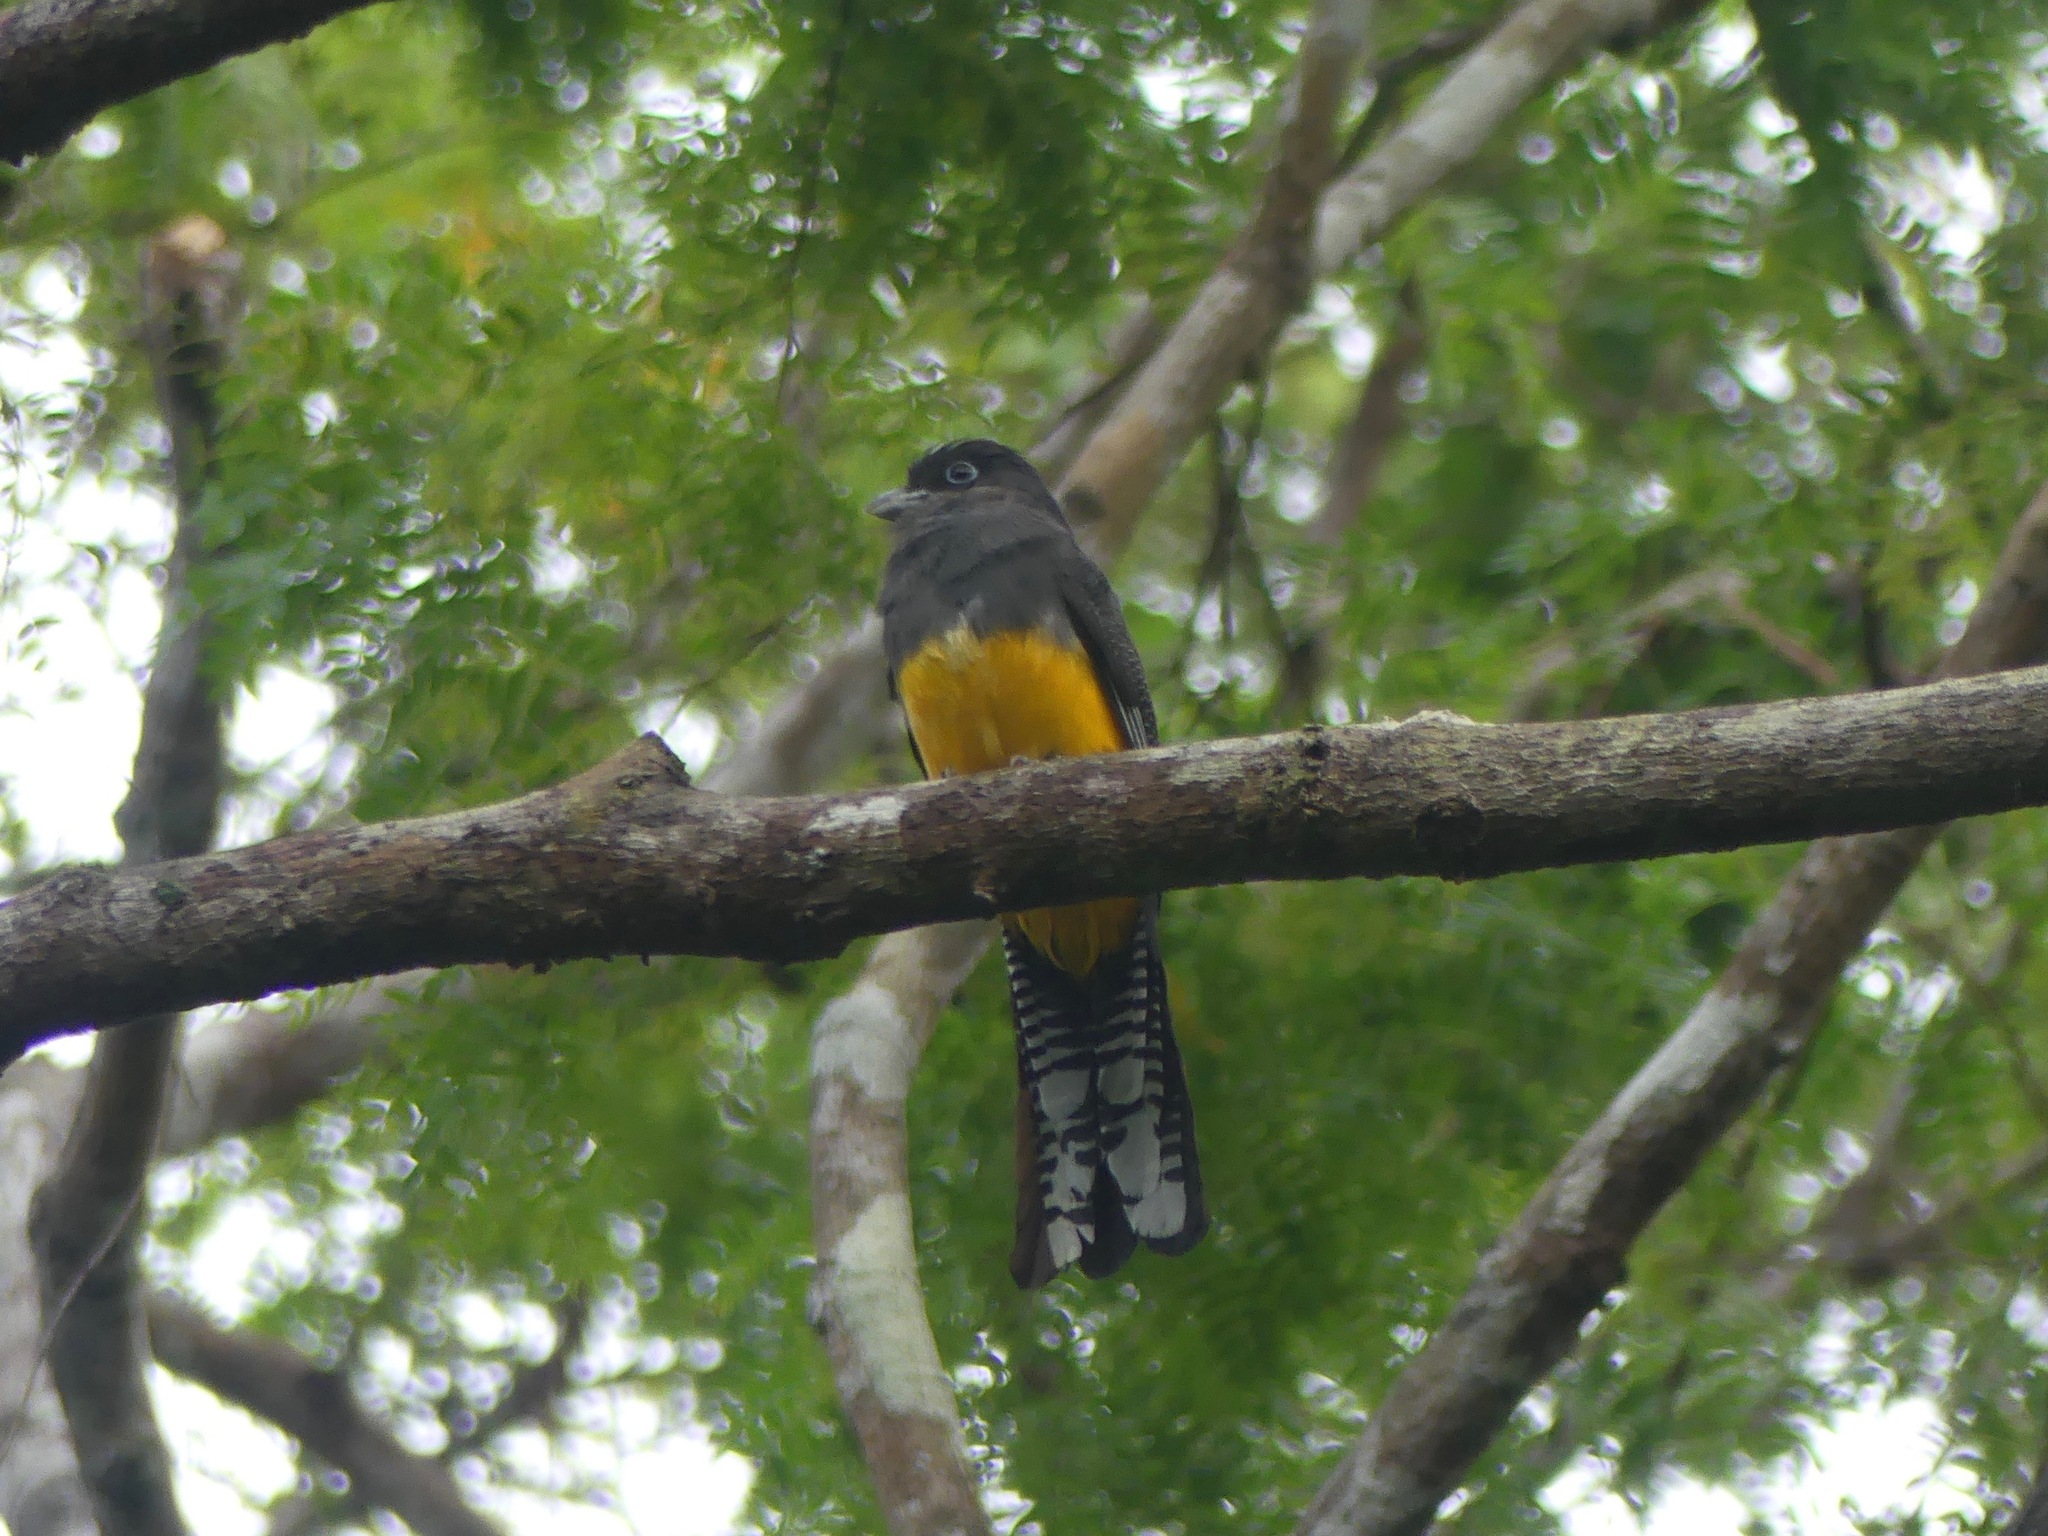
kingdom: Animalia
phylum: Chordata
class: Aves
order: Trogoniformes
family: Trogonidae
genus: Trogon
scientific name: Trogon viridis
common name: Green-backed trogon
